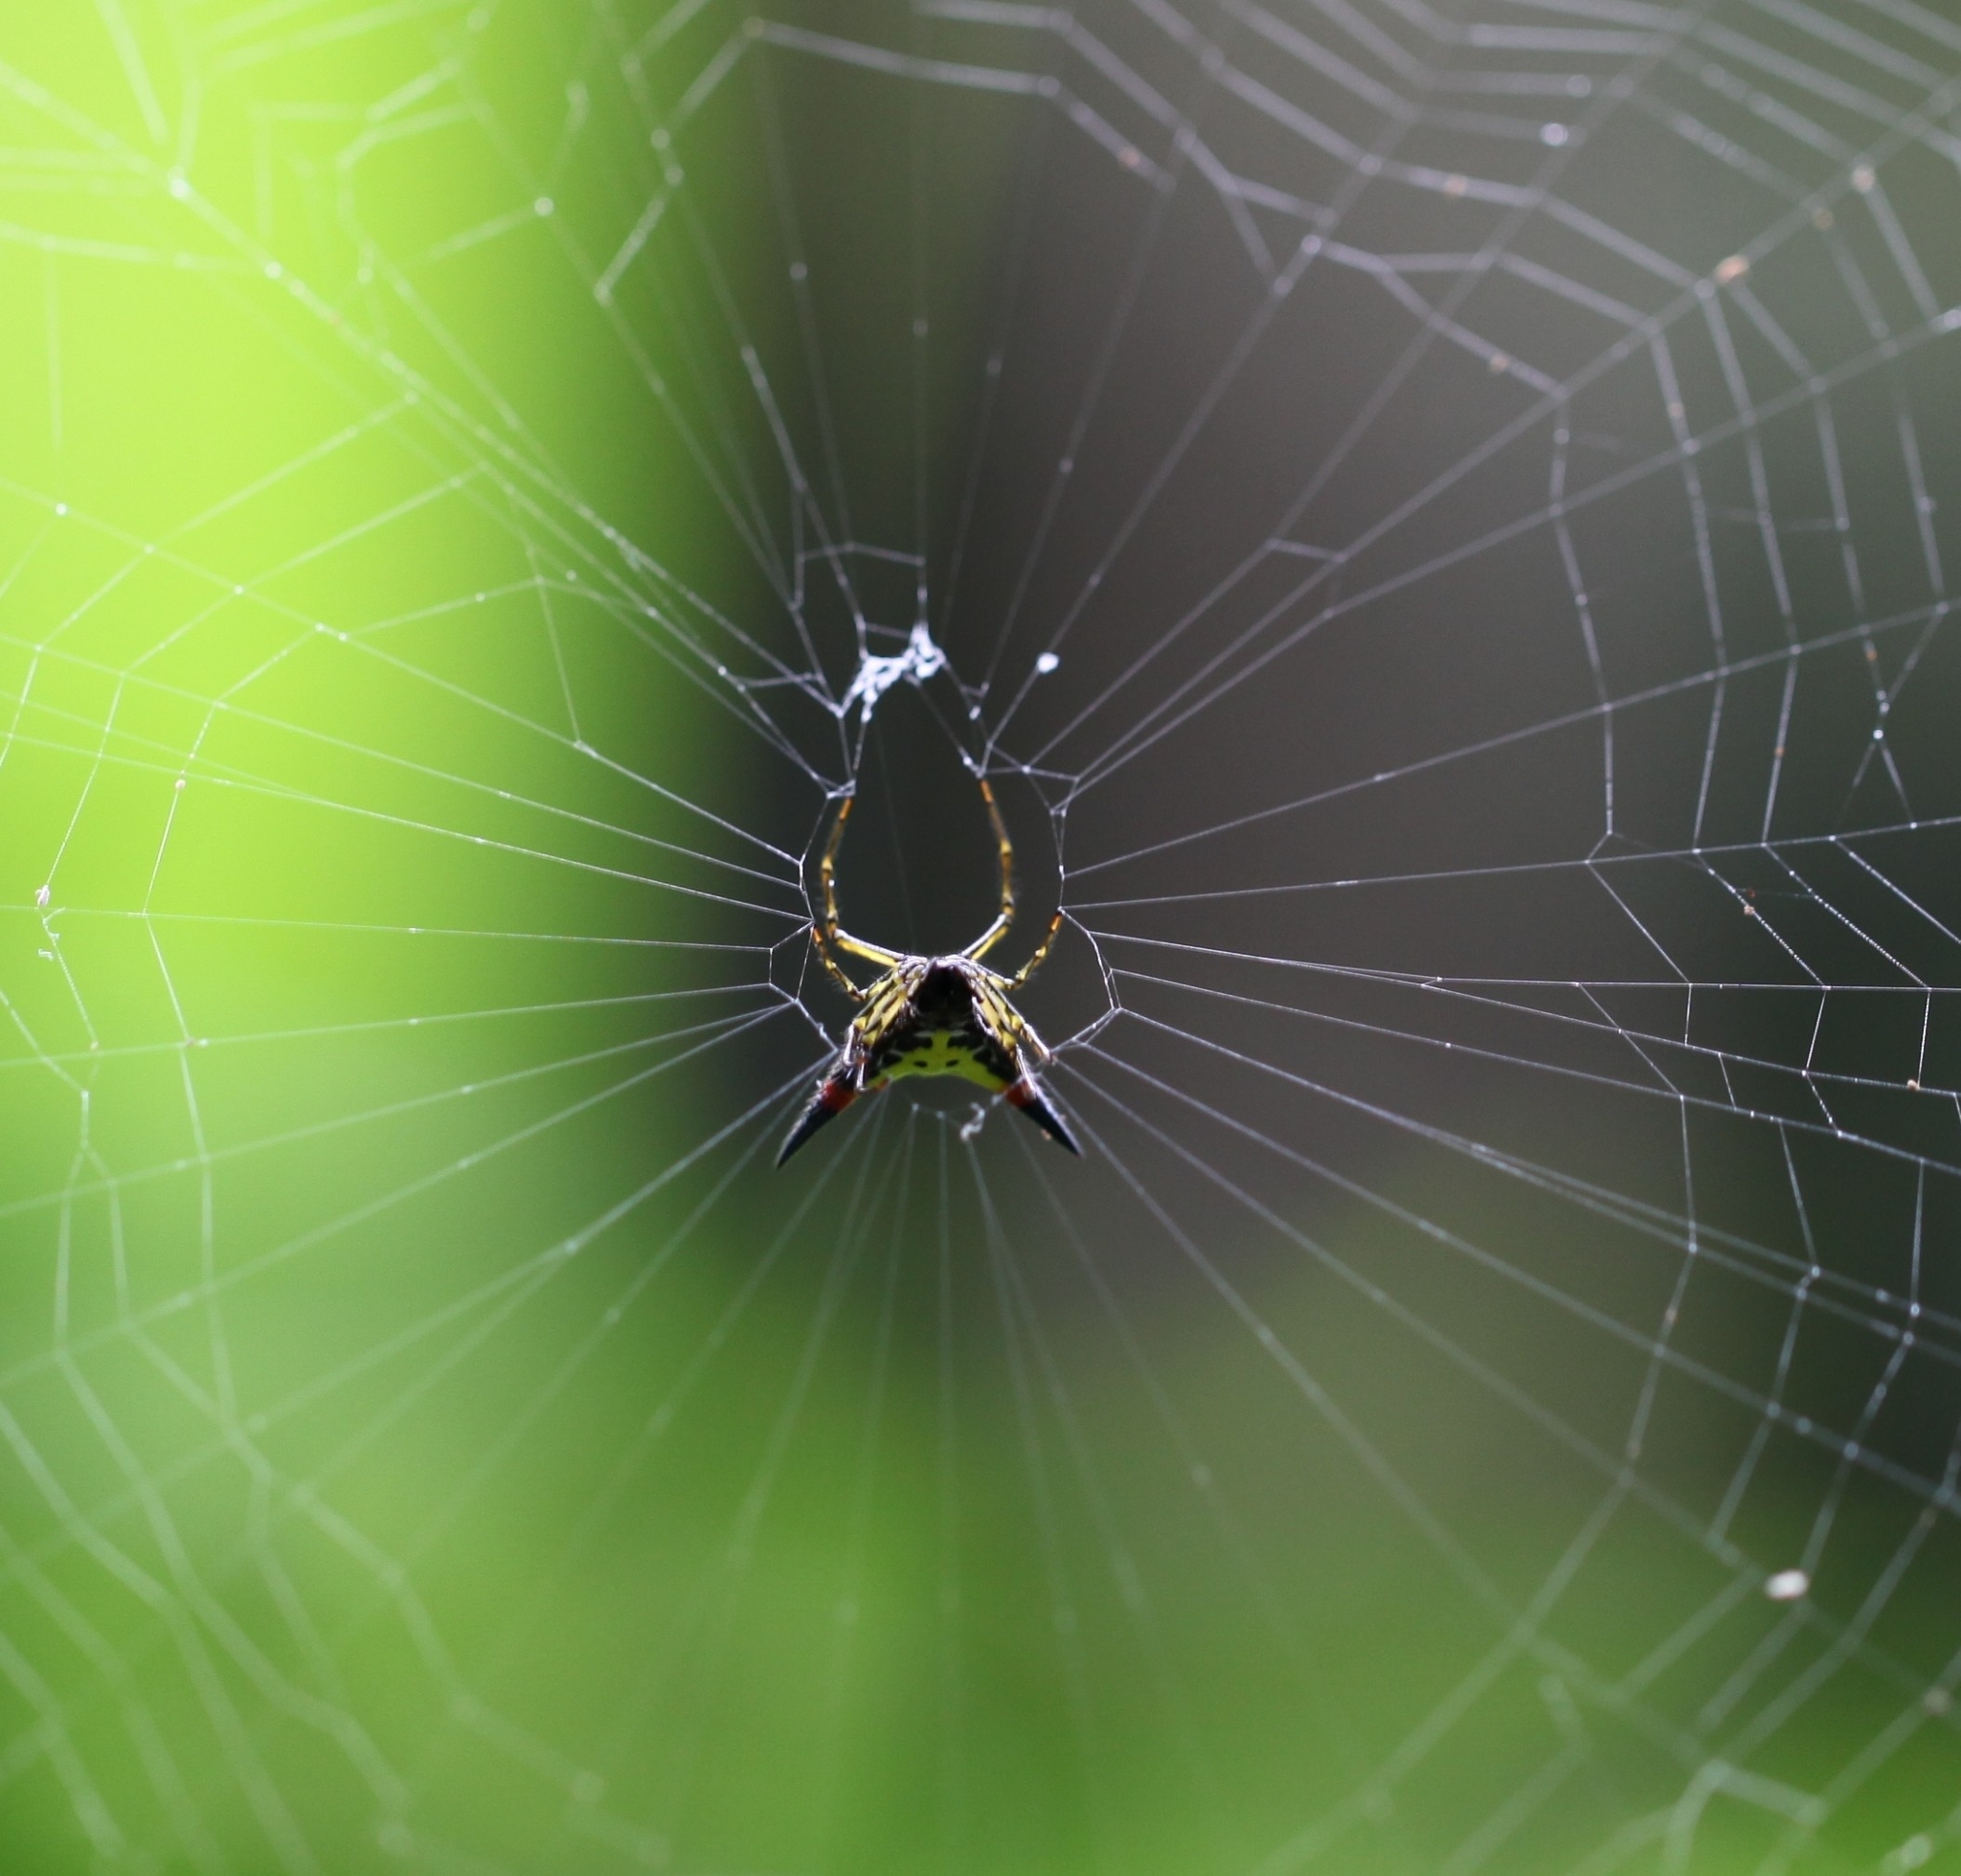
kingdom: Animalia
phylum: Arthropoda
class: Arachnida
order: Araneae
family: Araneidae
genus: Macracantha
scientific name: Macracantha hasselti
